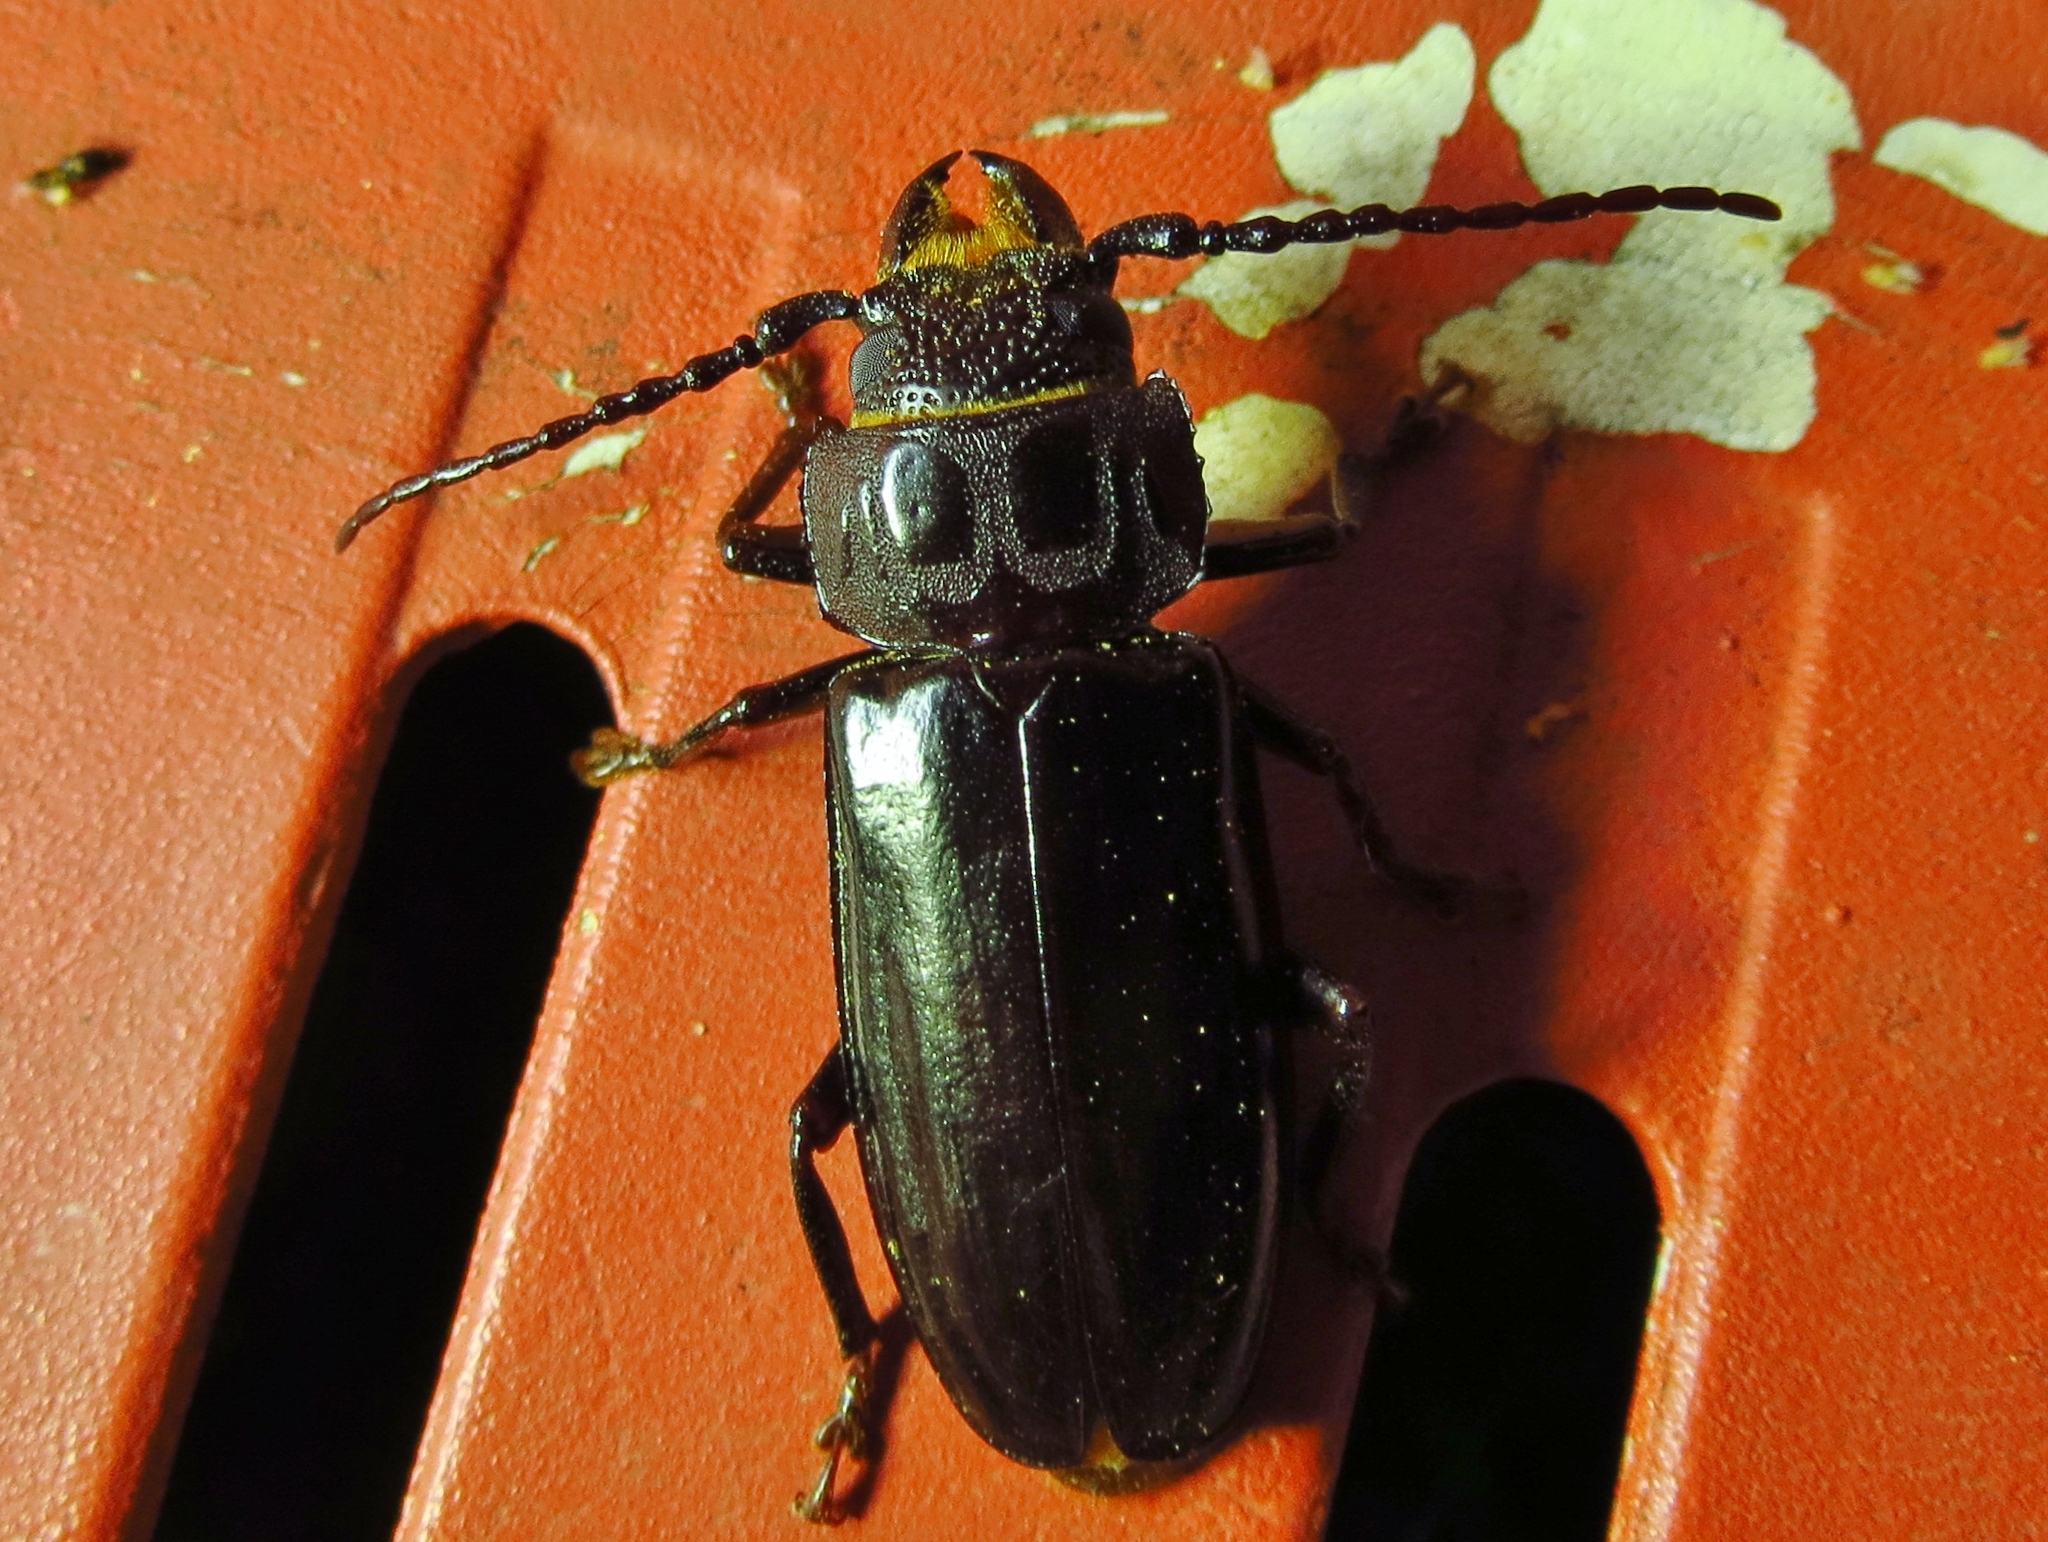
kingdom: Animalia
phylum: Arthropoda
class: Insecta
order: Coleoptera
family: Cerambycidae
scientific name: Cerambycidae
